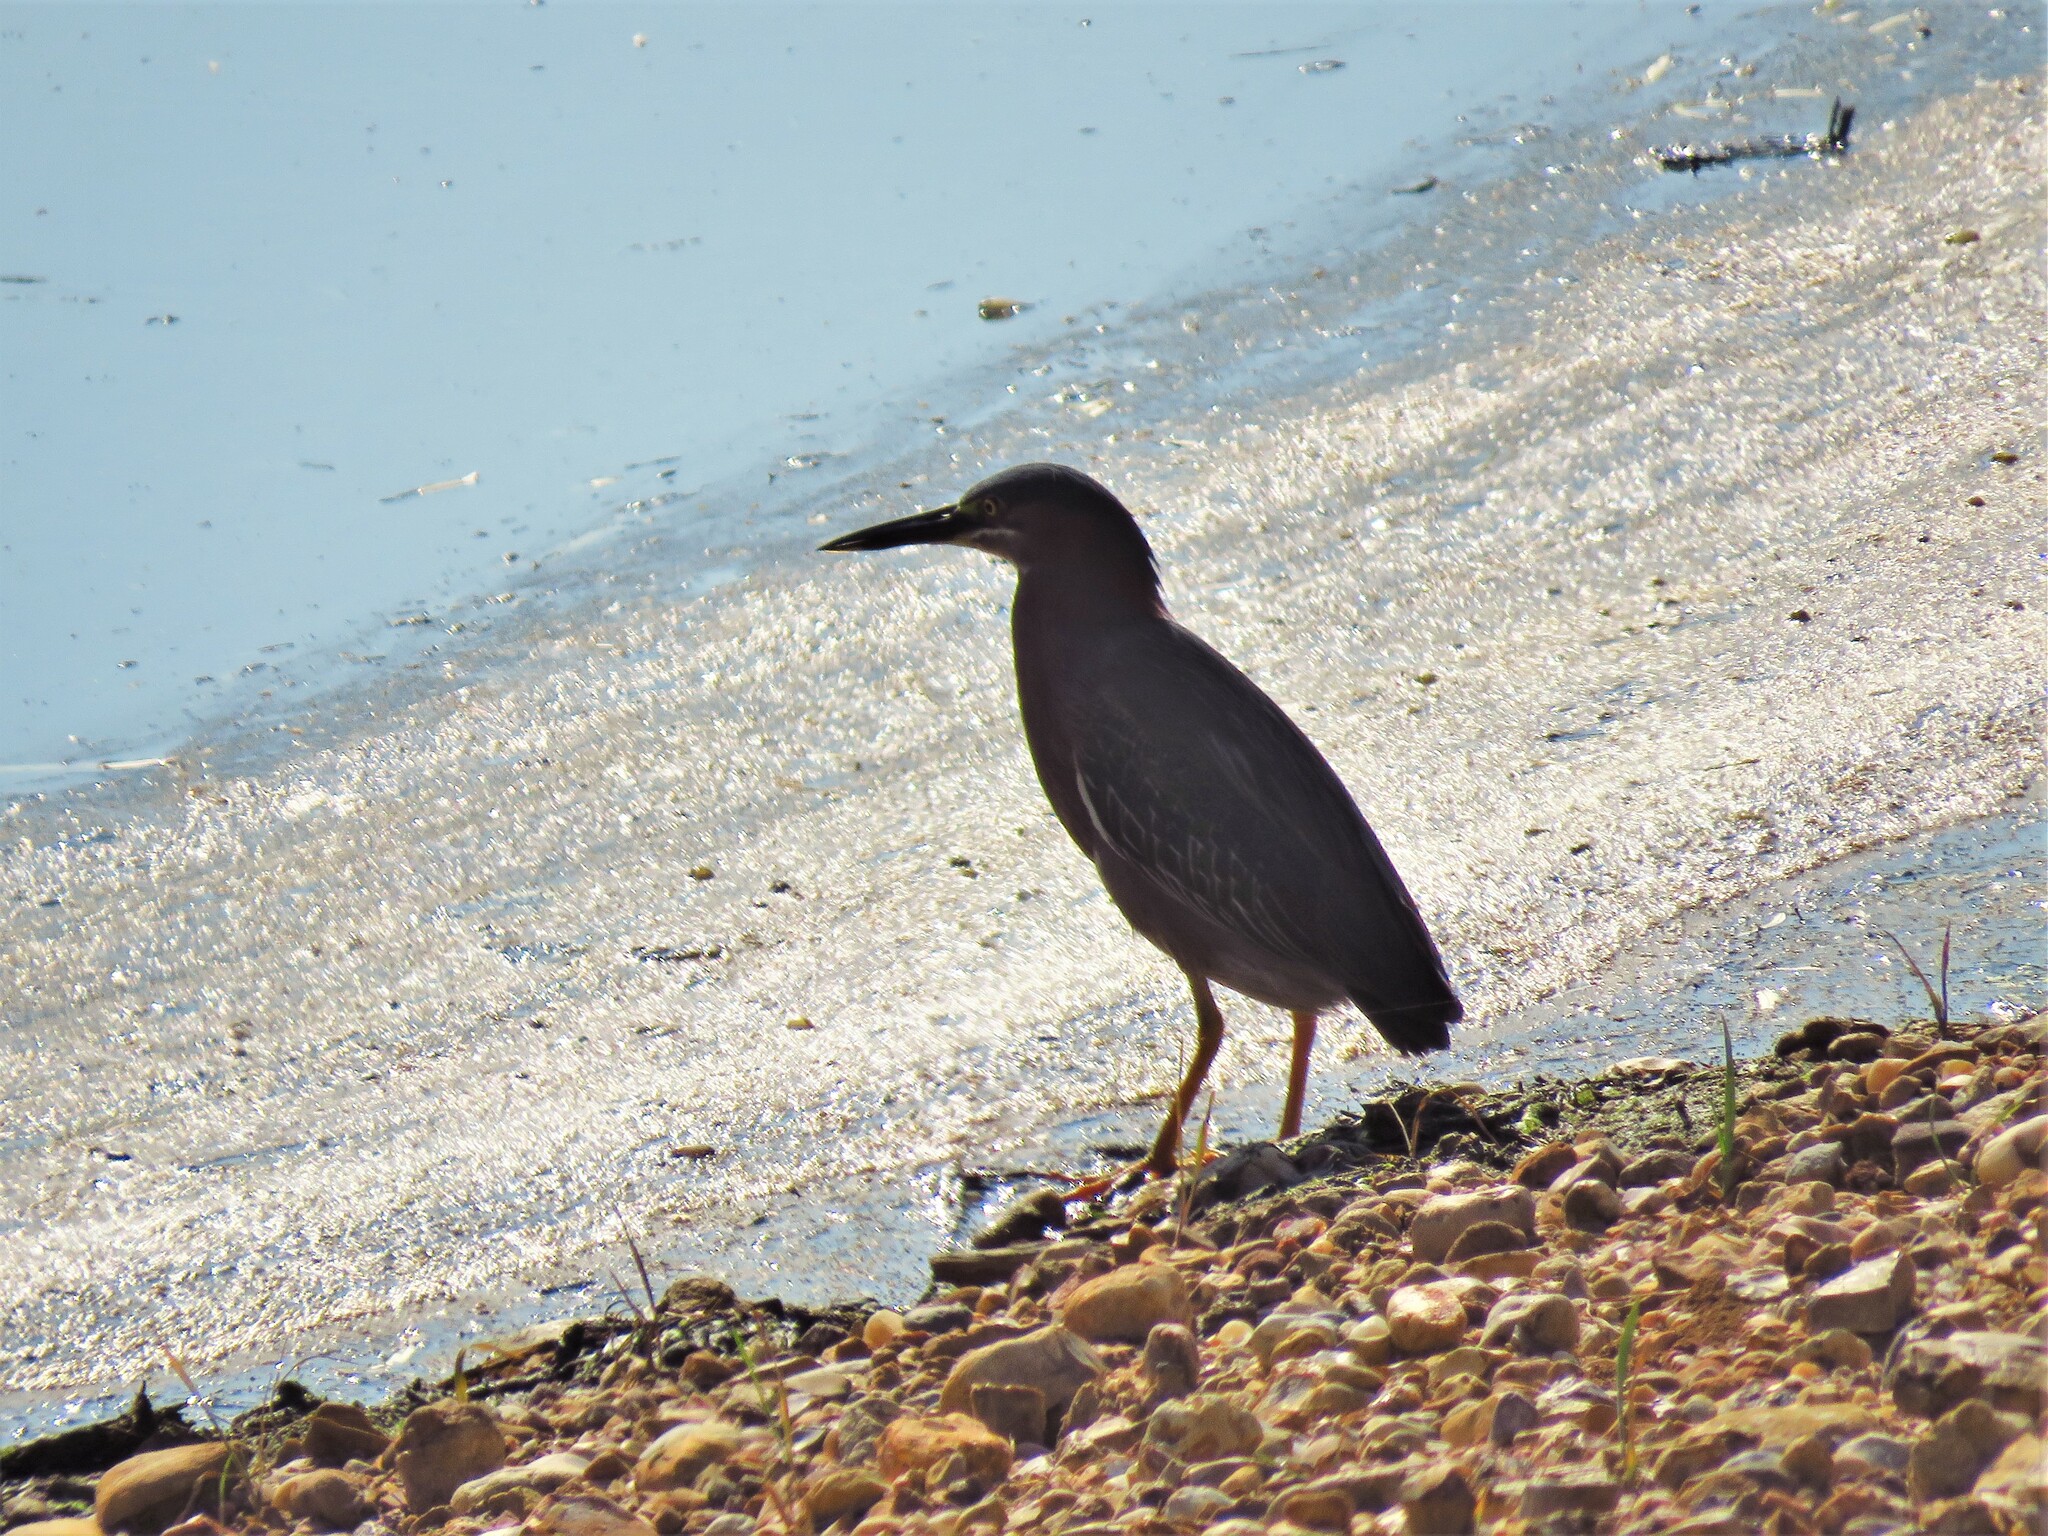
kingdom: Animalia
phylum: Chordata
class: Aves
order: Pelecaniformes
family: Ardeidae
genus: Butorides
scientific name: Butorides virescens
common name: Green heron
